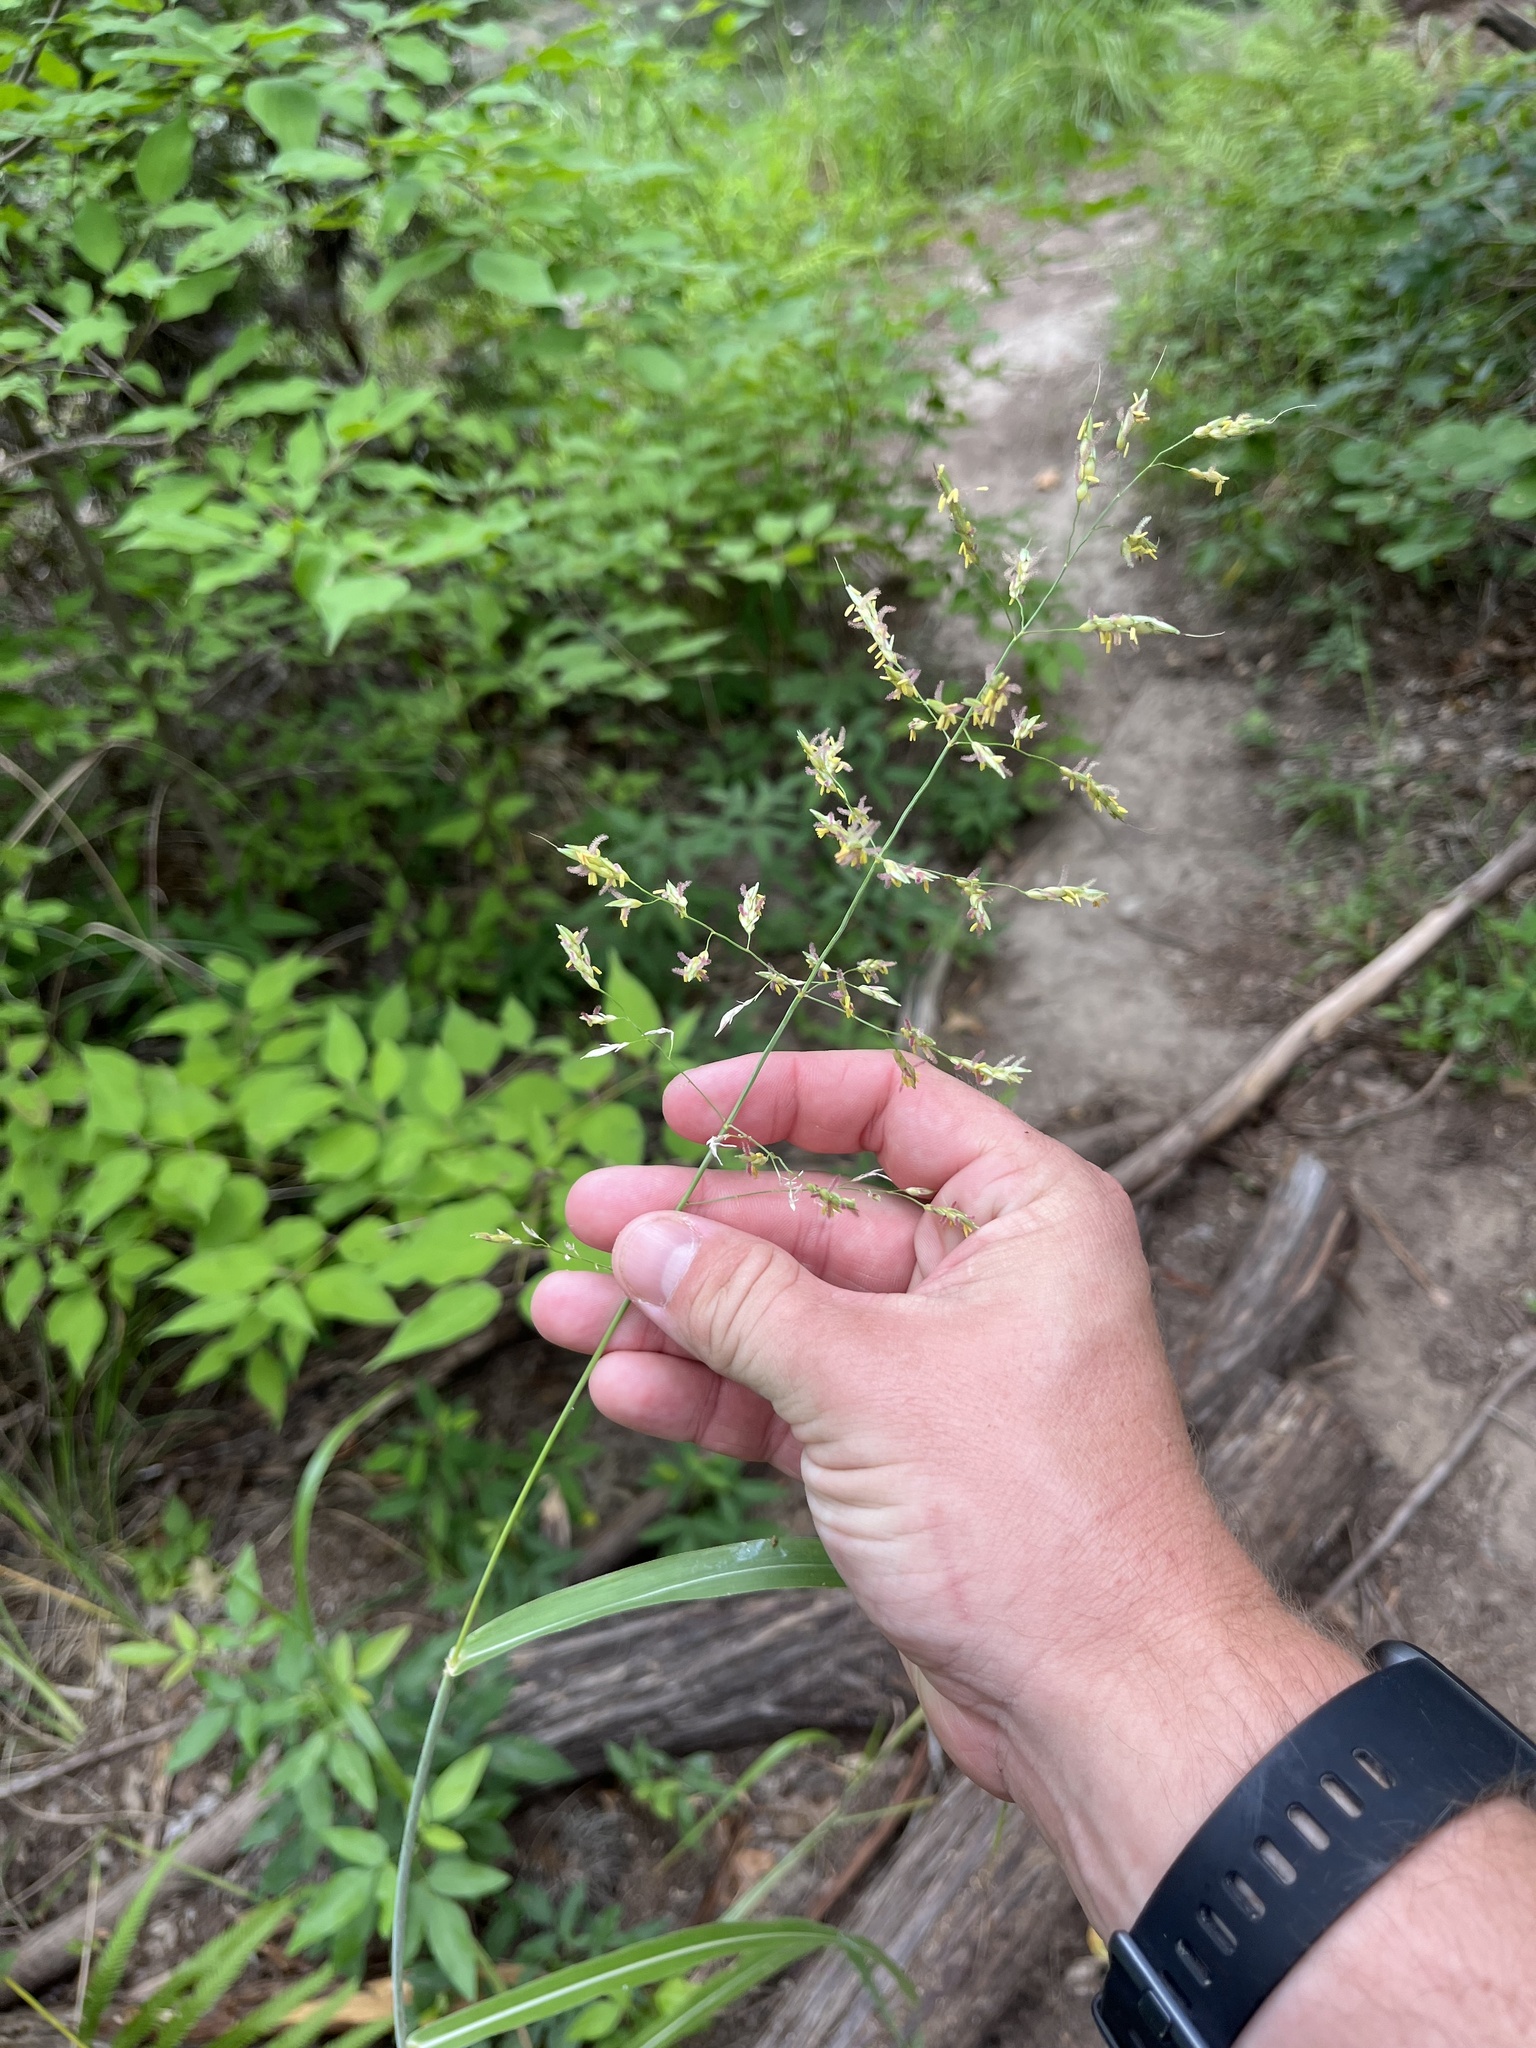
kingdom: Plantae
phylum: Tracheophyta
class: Liliopsida
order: Poales
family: Poaceae
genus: Sorghum
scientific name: Sorghum halepense
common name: Johnson-grass
